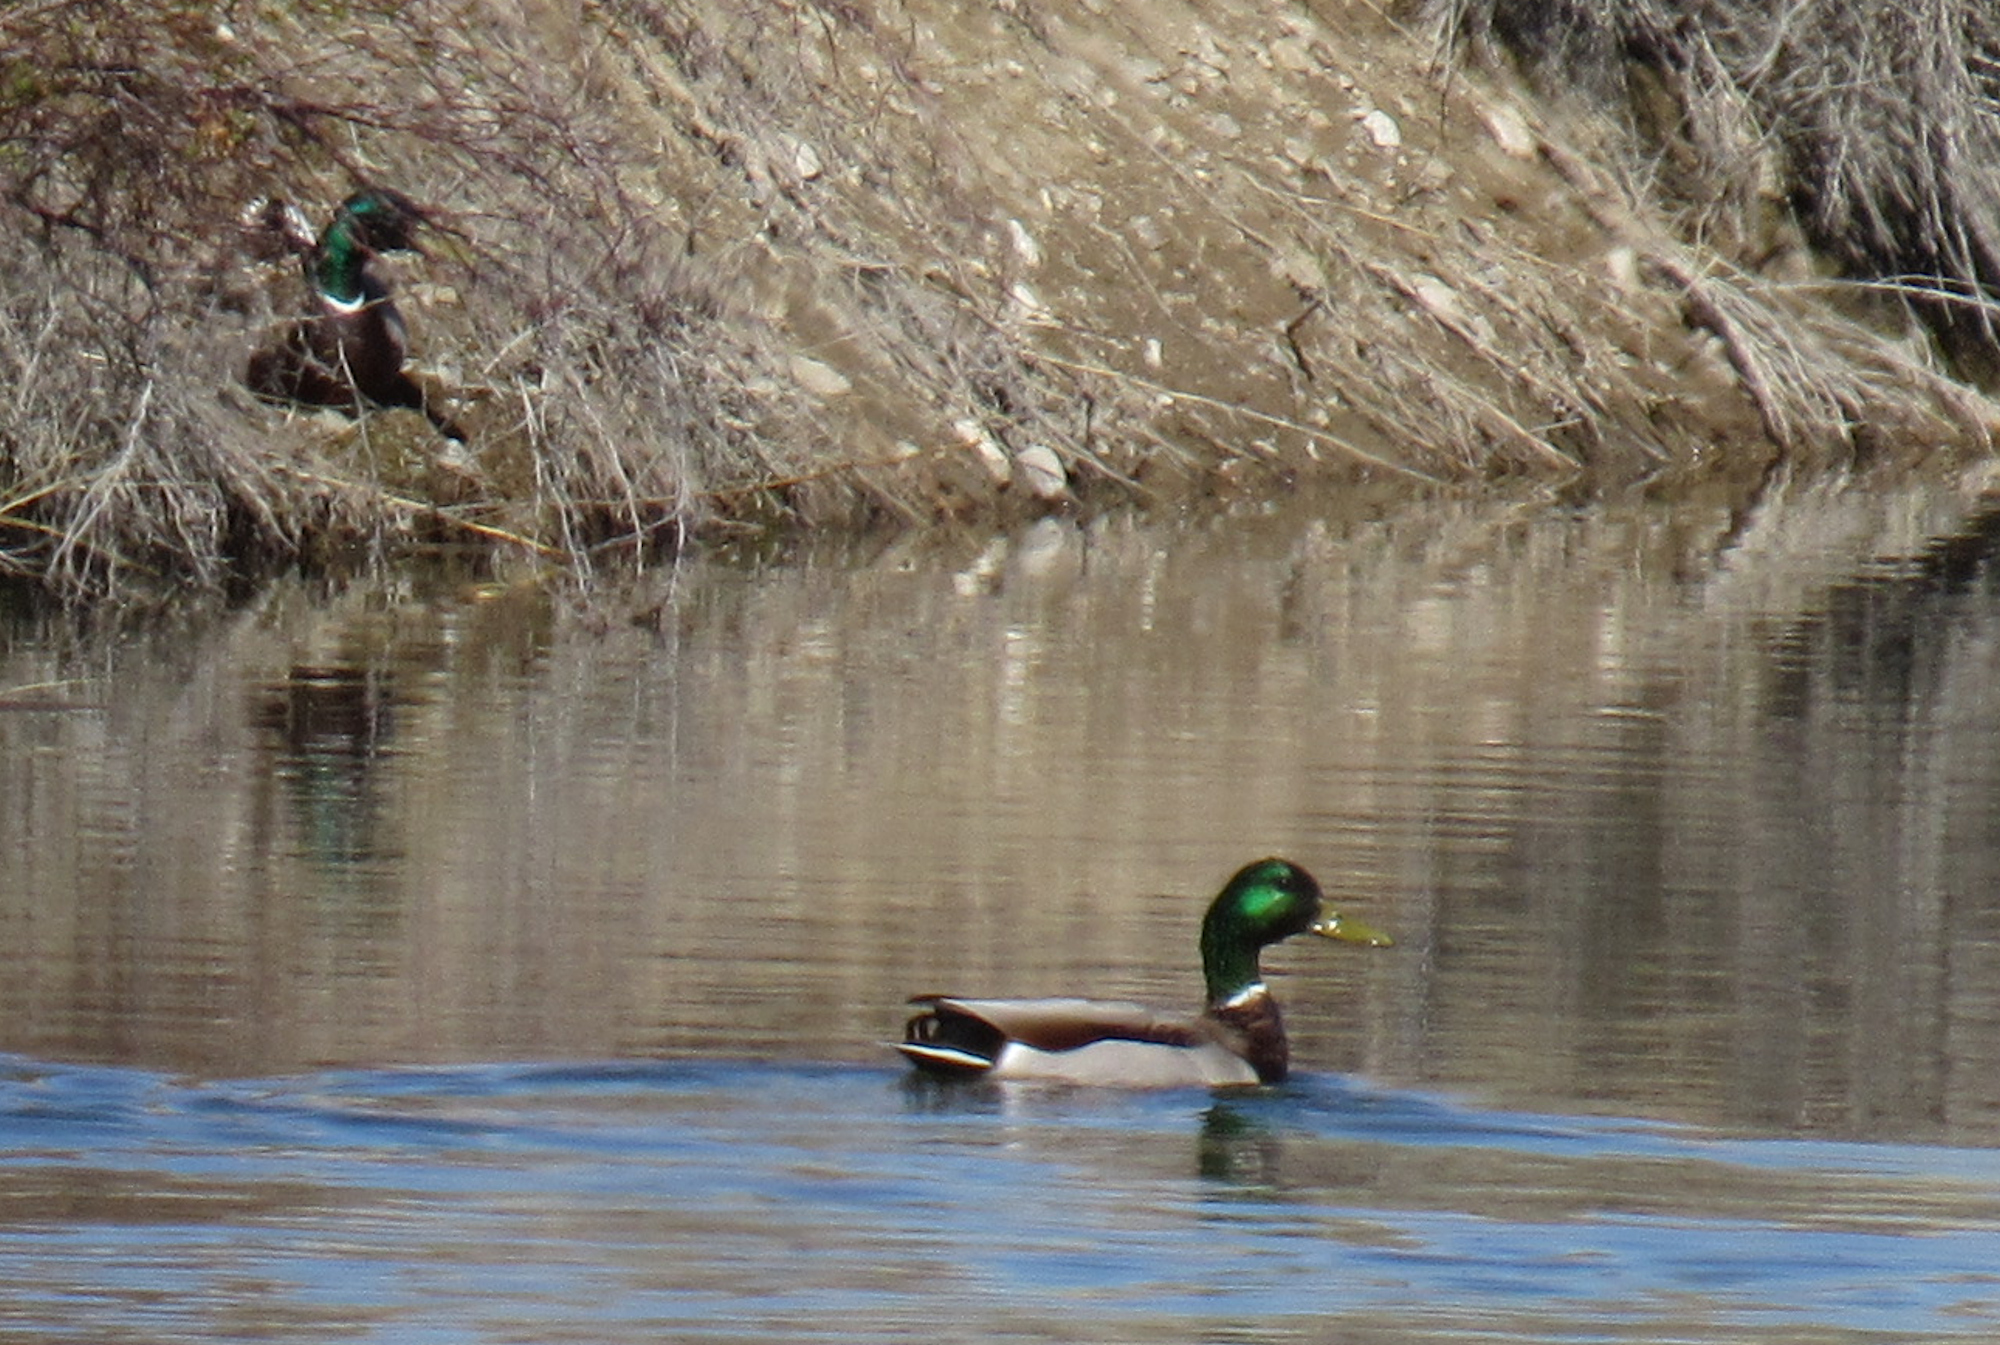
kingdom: Animalia
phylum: Chordata
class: Aves
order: Anseriformes
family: Anatidae
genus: Anas
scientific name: Anas platyrhynchos
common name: Mallard
